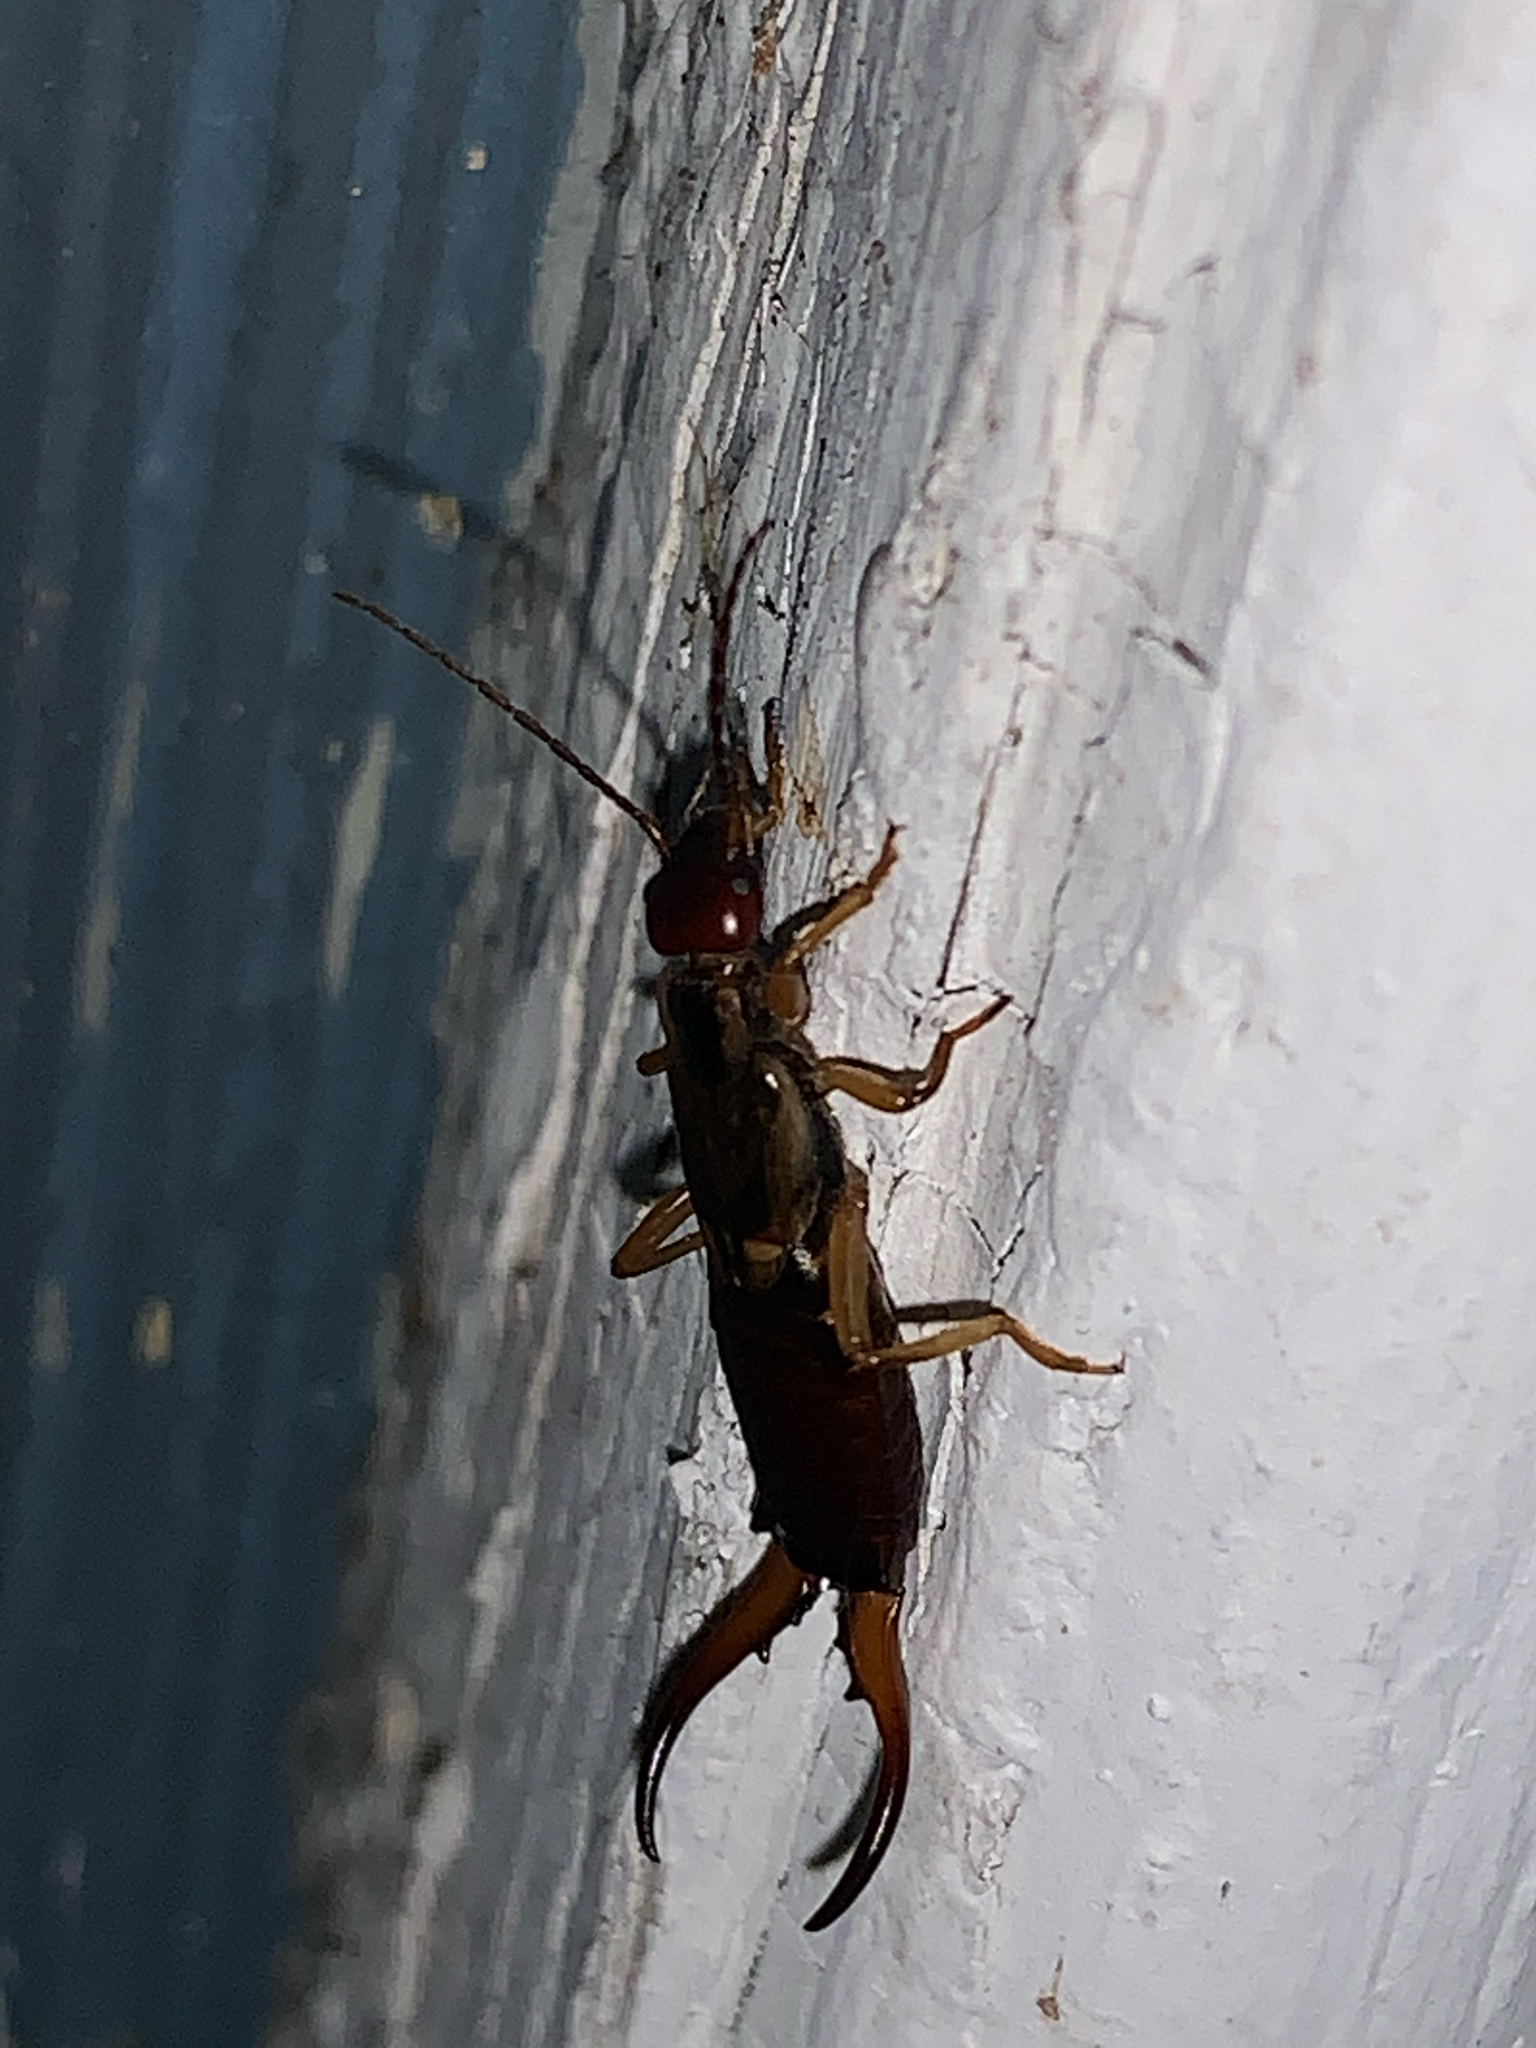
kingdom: Animalia
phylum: Arthropoda
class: Insecta
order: Dermaptera
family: Forficulidae
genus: Forficula
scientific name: Forficula
